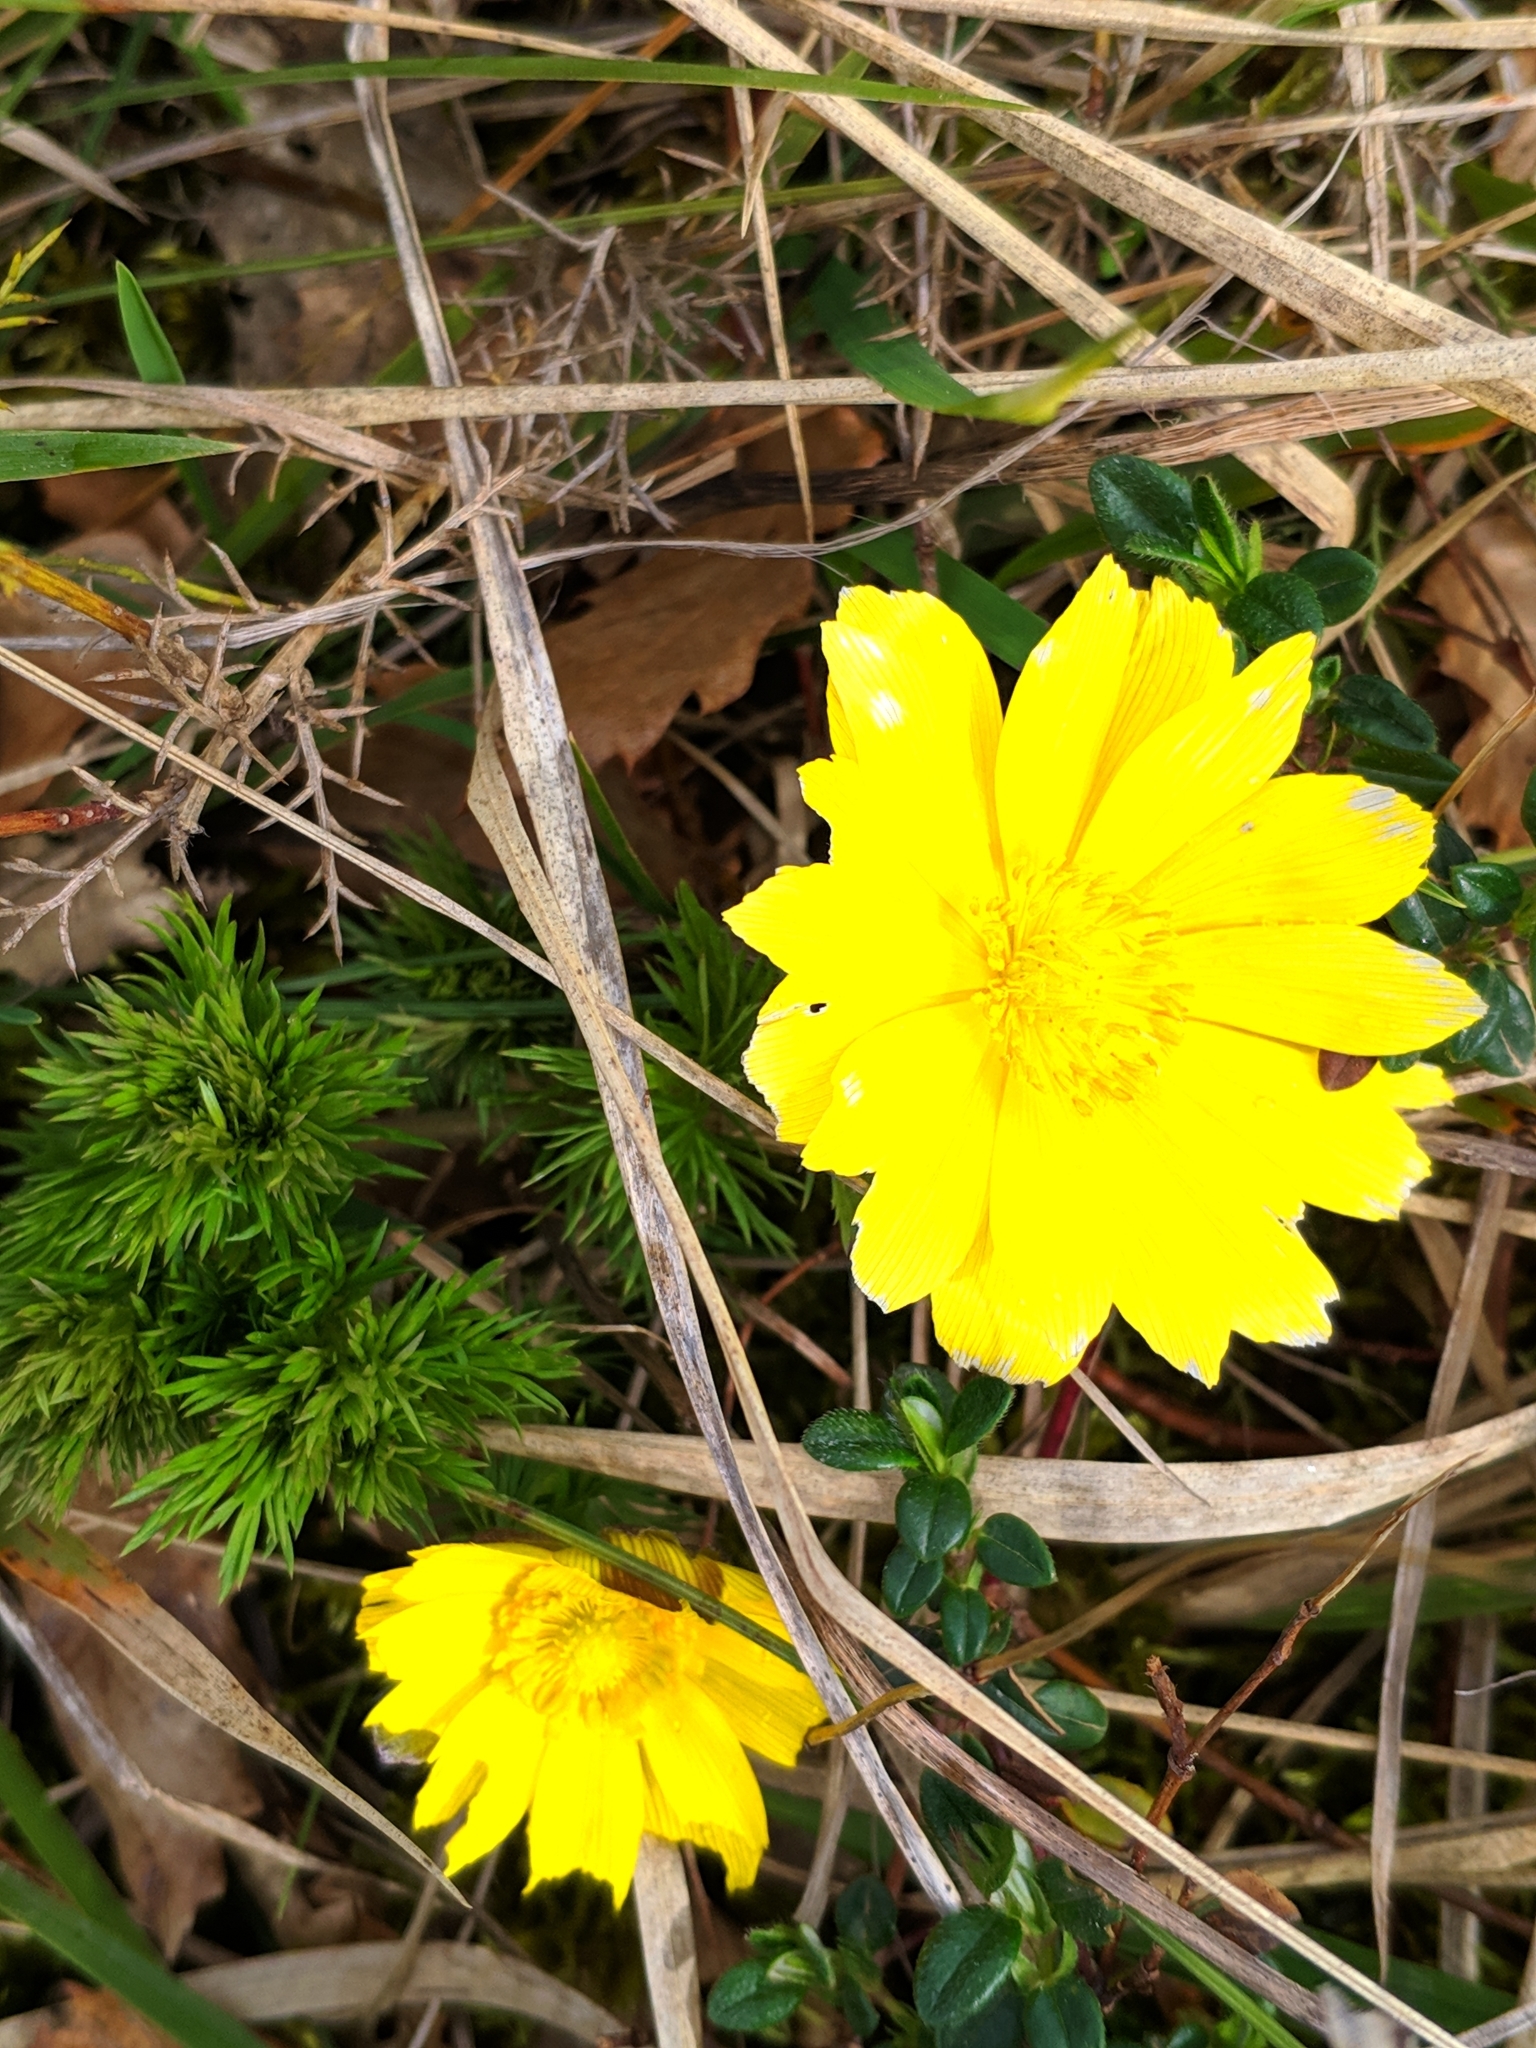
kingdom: Plantae
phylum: Tracheophyta
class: Magnoliopsida
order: Ranunculales
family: Ranunculaceae
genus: Adonis
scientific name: Adonis vernalis
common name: Yellow pheasants-eye
